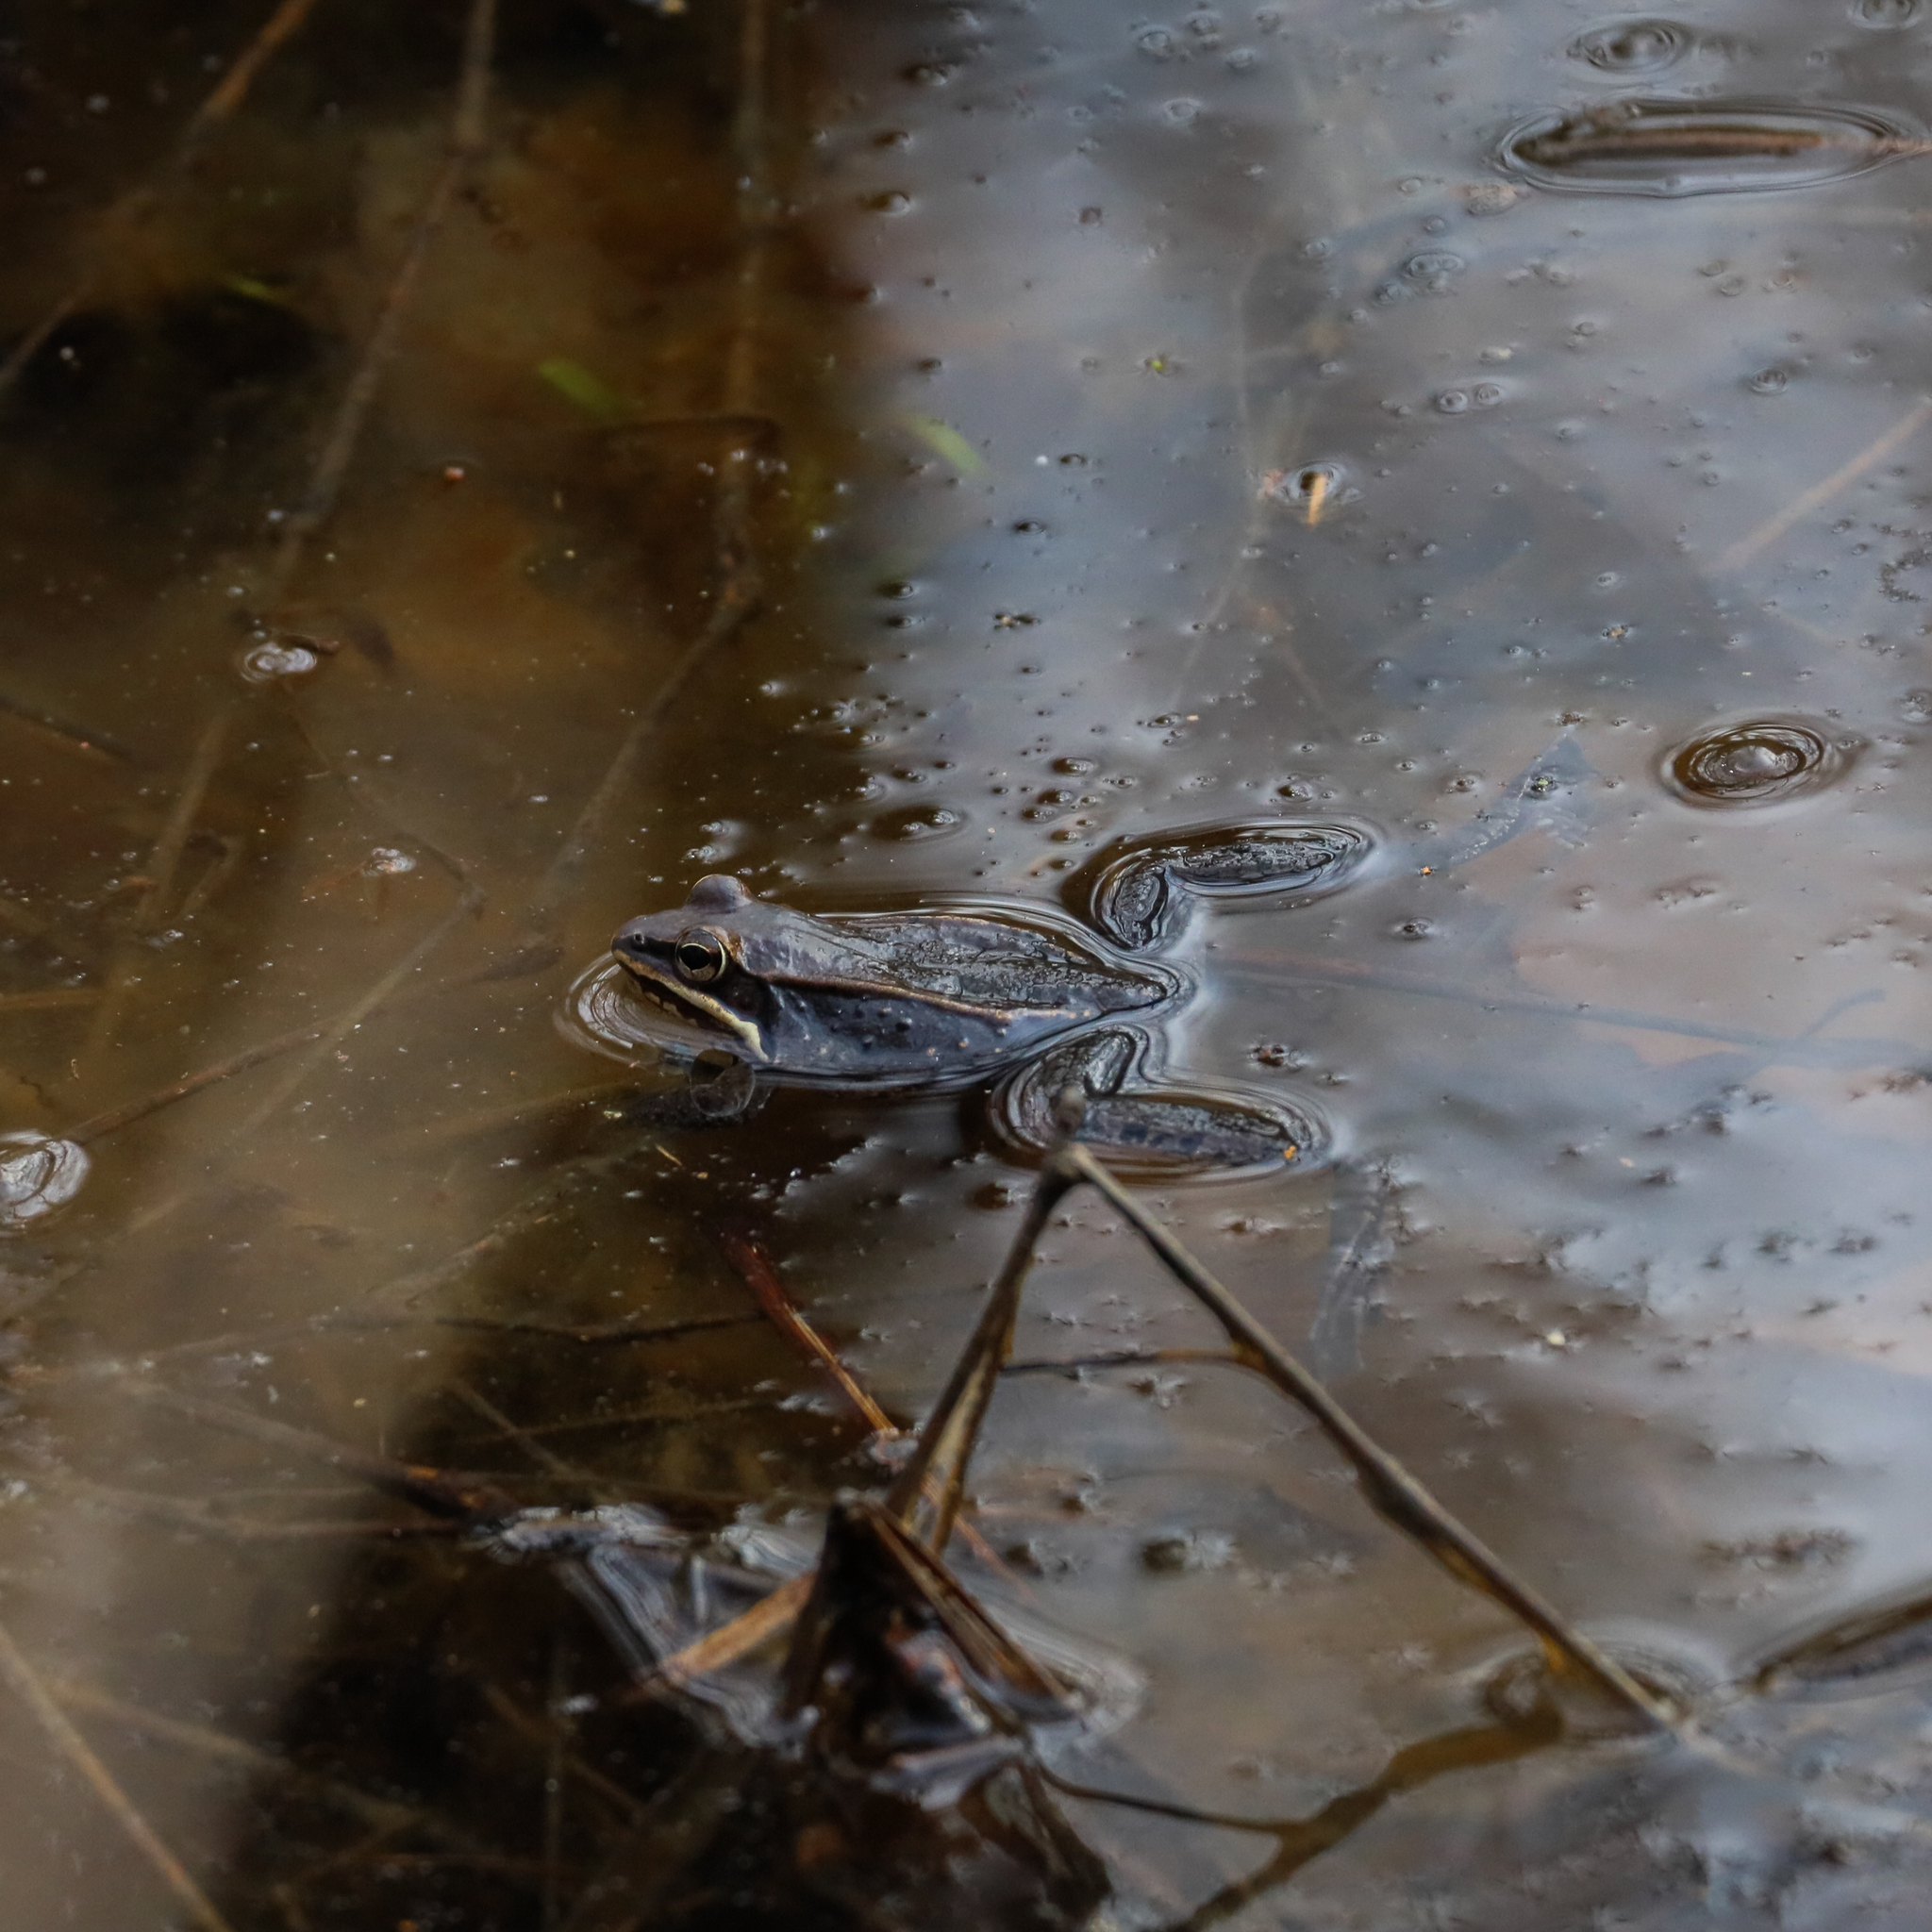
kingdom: Animalia
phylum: Chordata
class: Amphibia
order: Anura
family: Ranidae
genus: Lithobates
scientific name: Lithobates sylvaticus
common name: Wood frog
